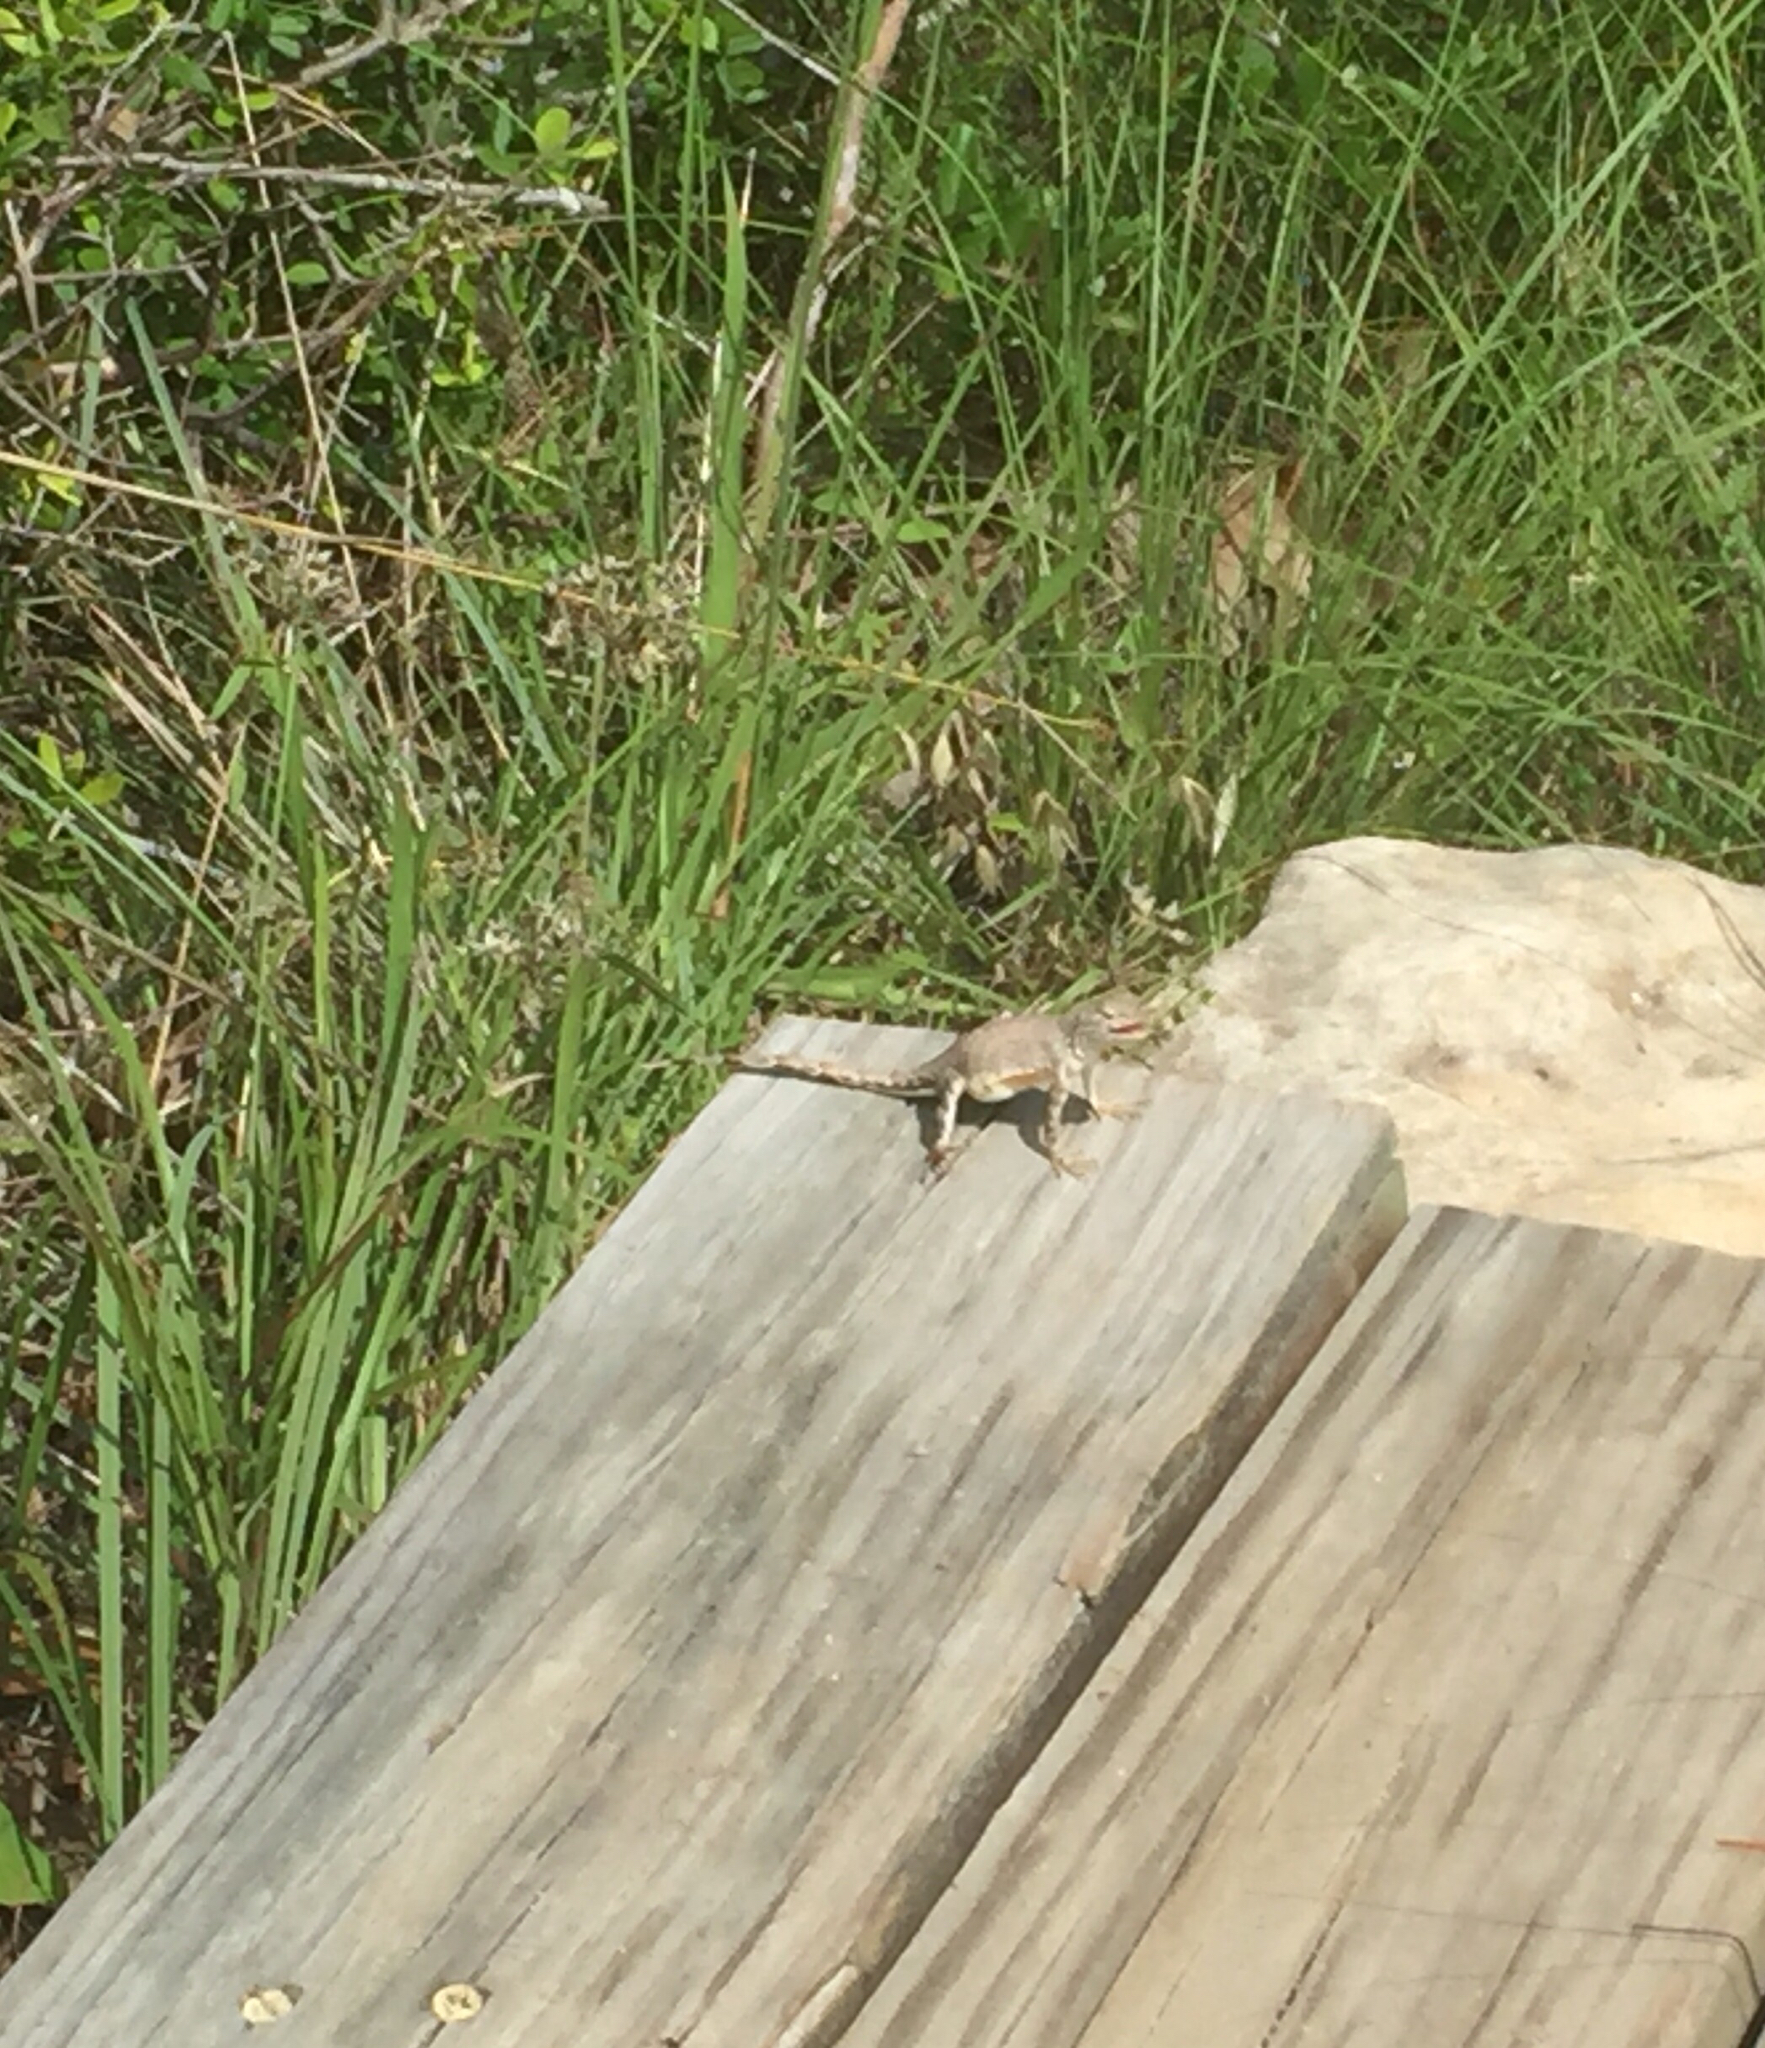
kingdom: Animalia
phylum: Chordata
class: Squamata
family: Phrynosomatidae
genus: Cophosaurus
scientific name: Cophosaurus texanus
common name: Greater earless lizard
